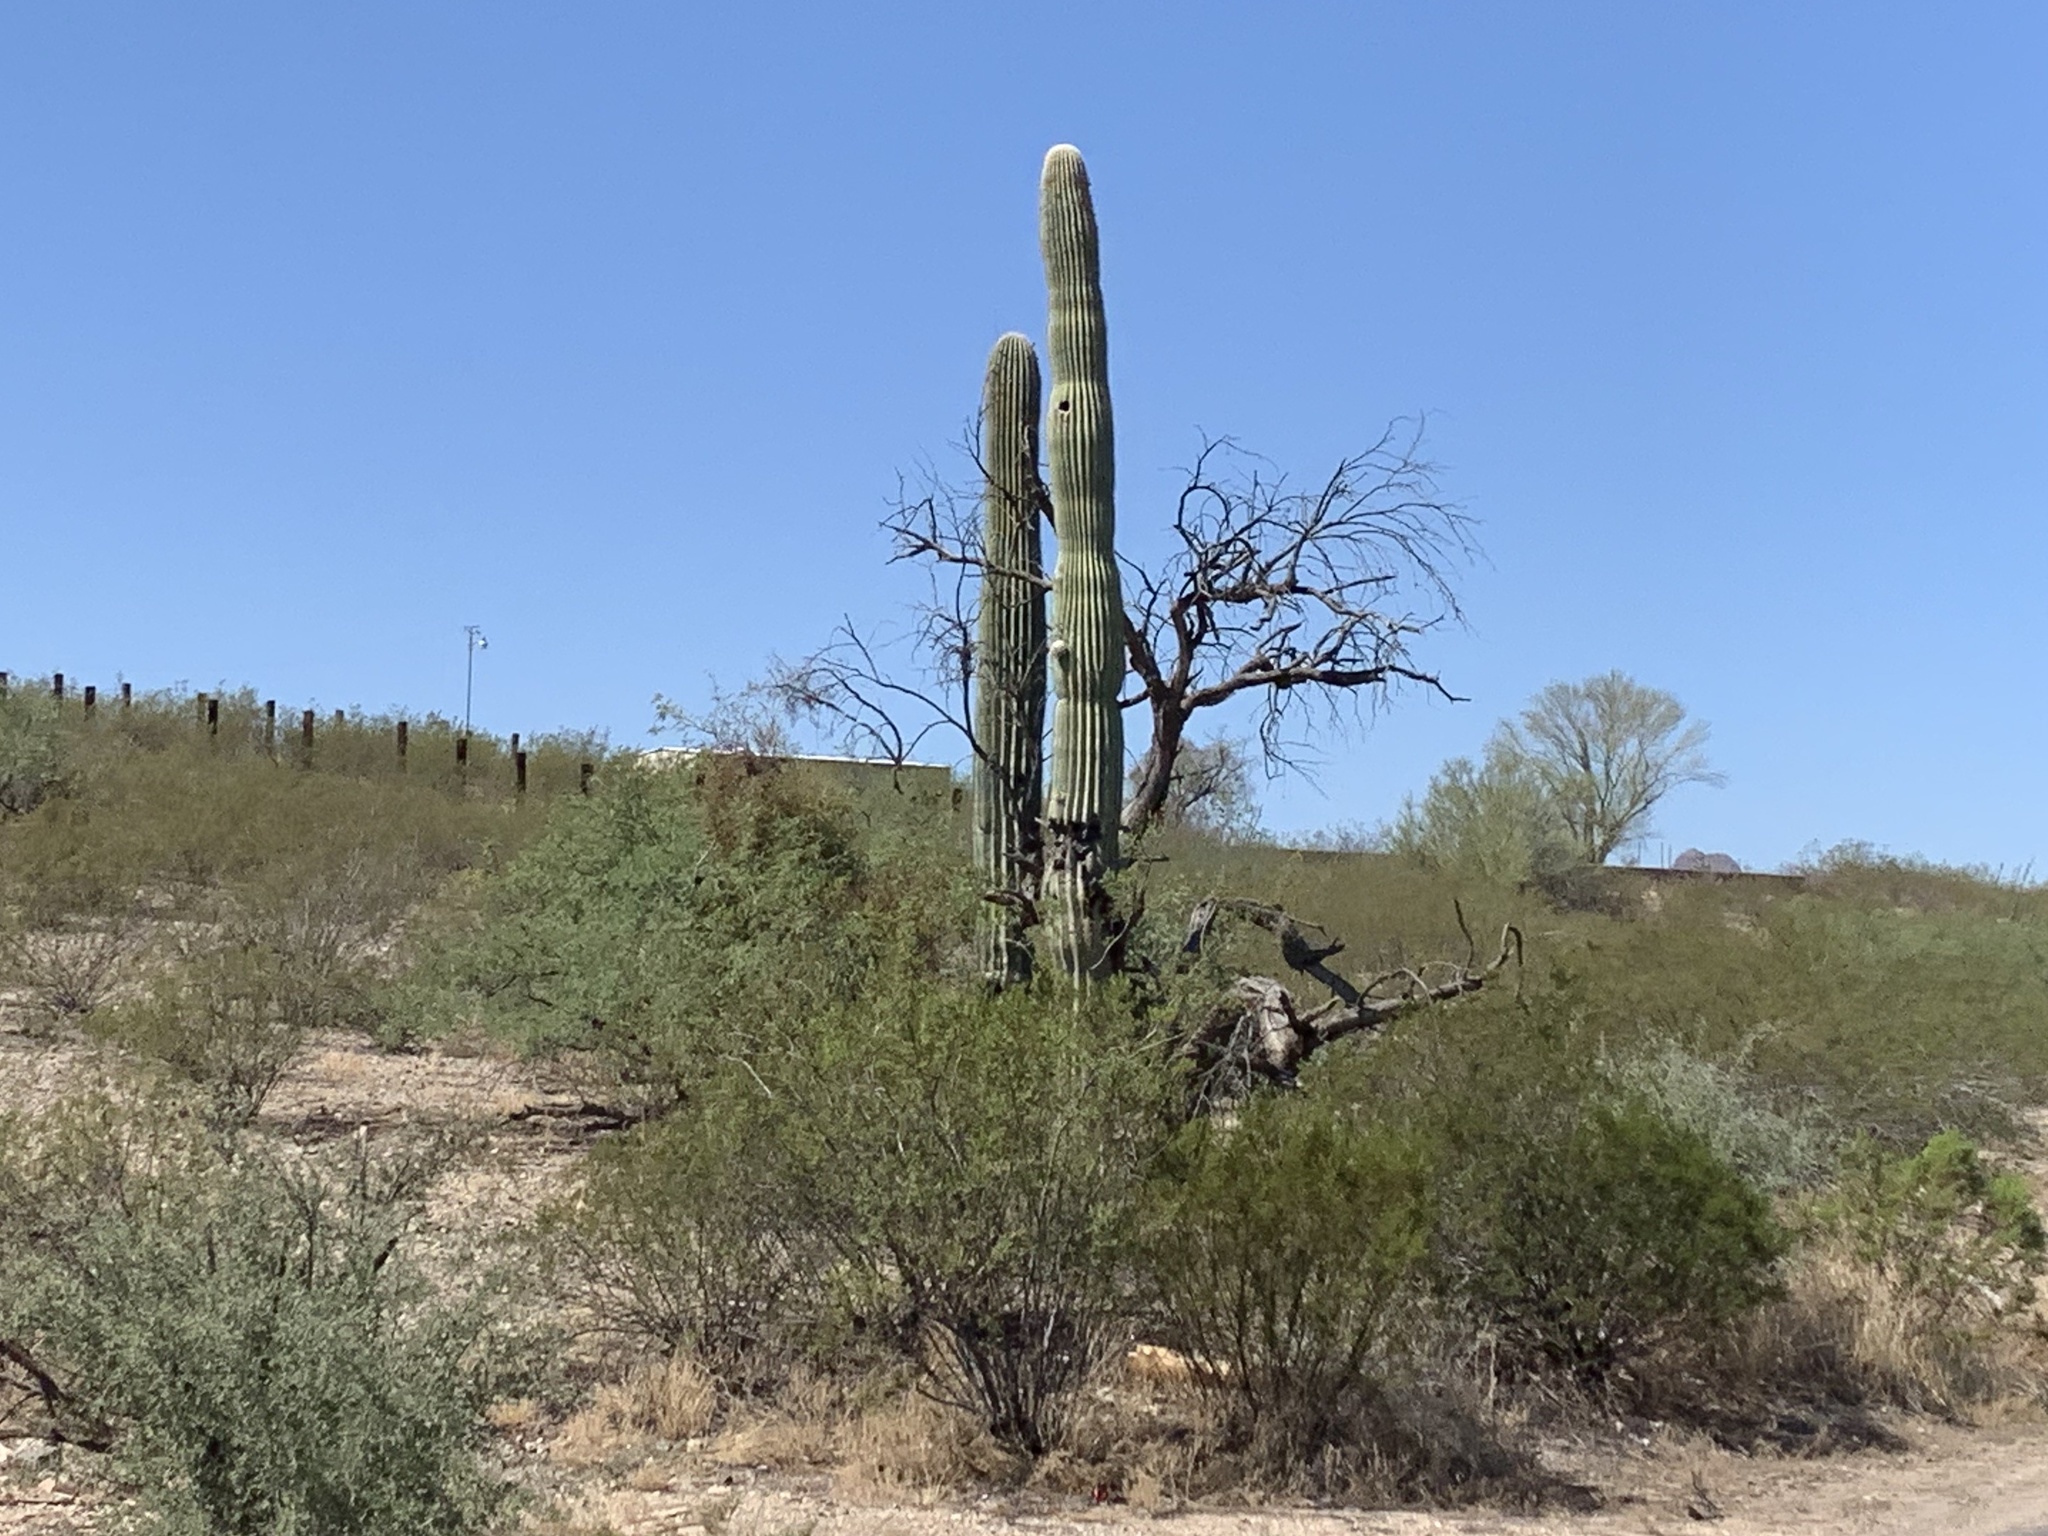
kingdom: Plantae
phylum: Tracheophyta
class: Magnoliopsida
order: Caryophyllales
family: Cactaceae
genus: Carnegiea
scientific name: Carnegiea gigantea
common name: Saguaro
